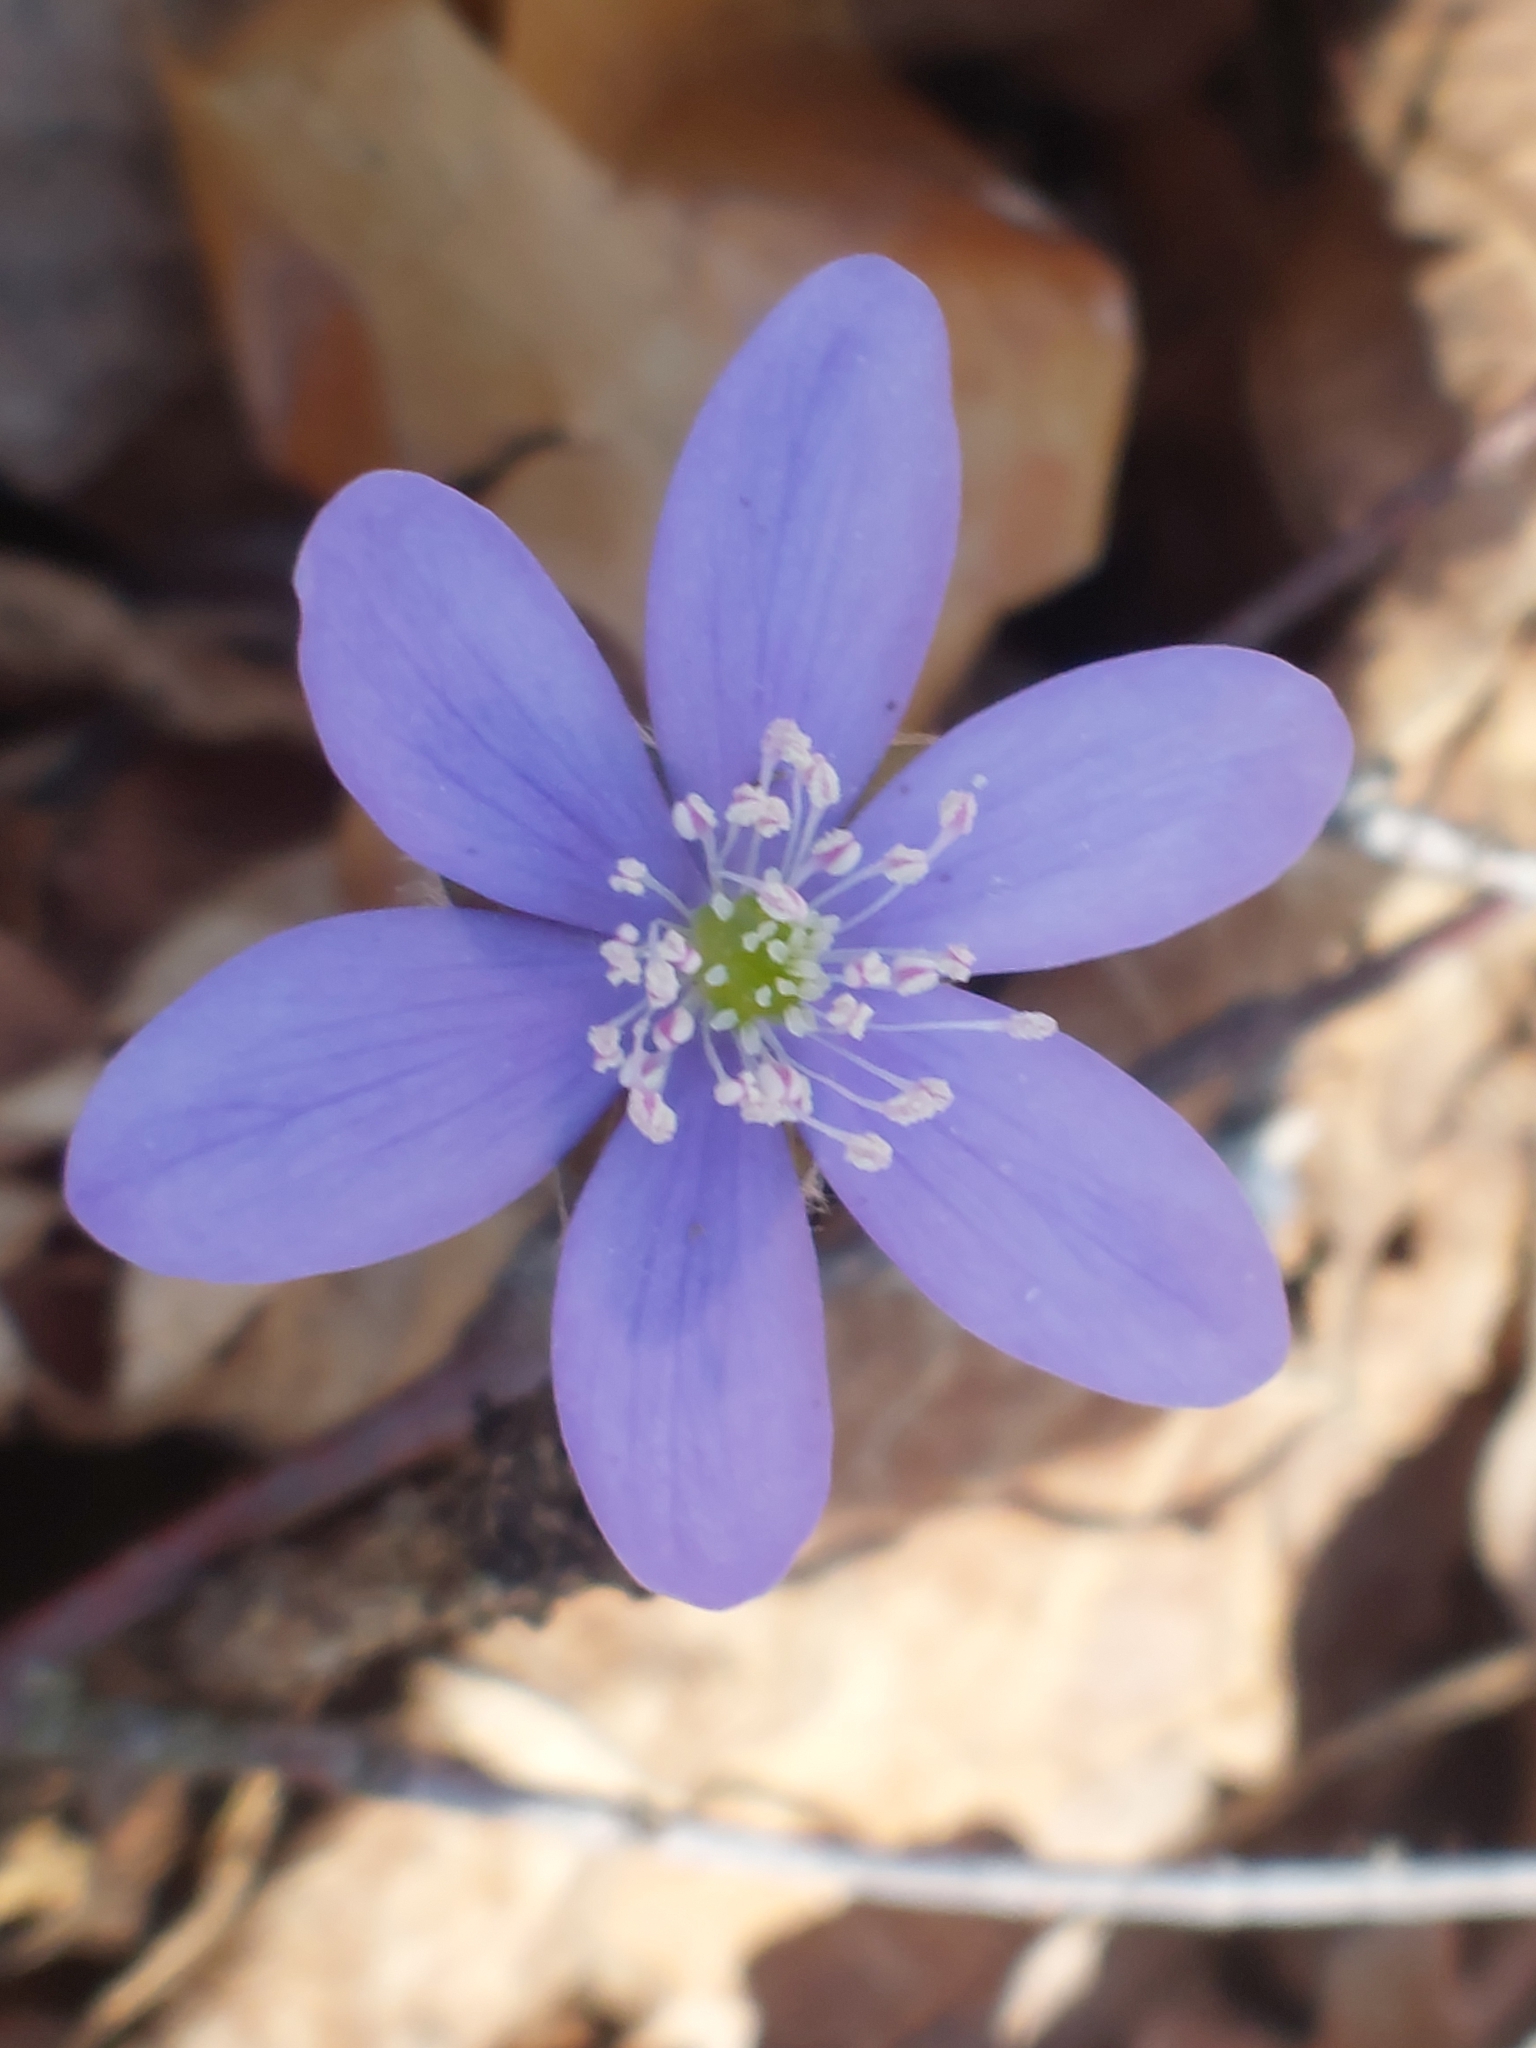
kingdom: Plantae
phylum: Tracheophyta
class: Magnoliopsida
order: Ranunculales
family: Ranunculaceae
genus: Hepatica
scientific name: Hepatica nobilis
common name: Liverleaf
